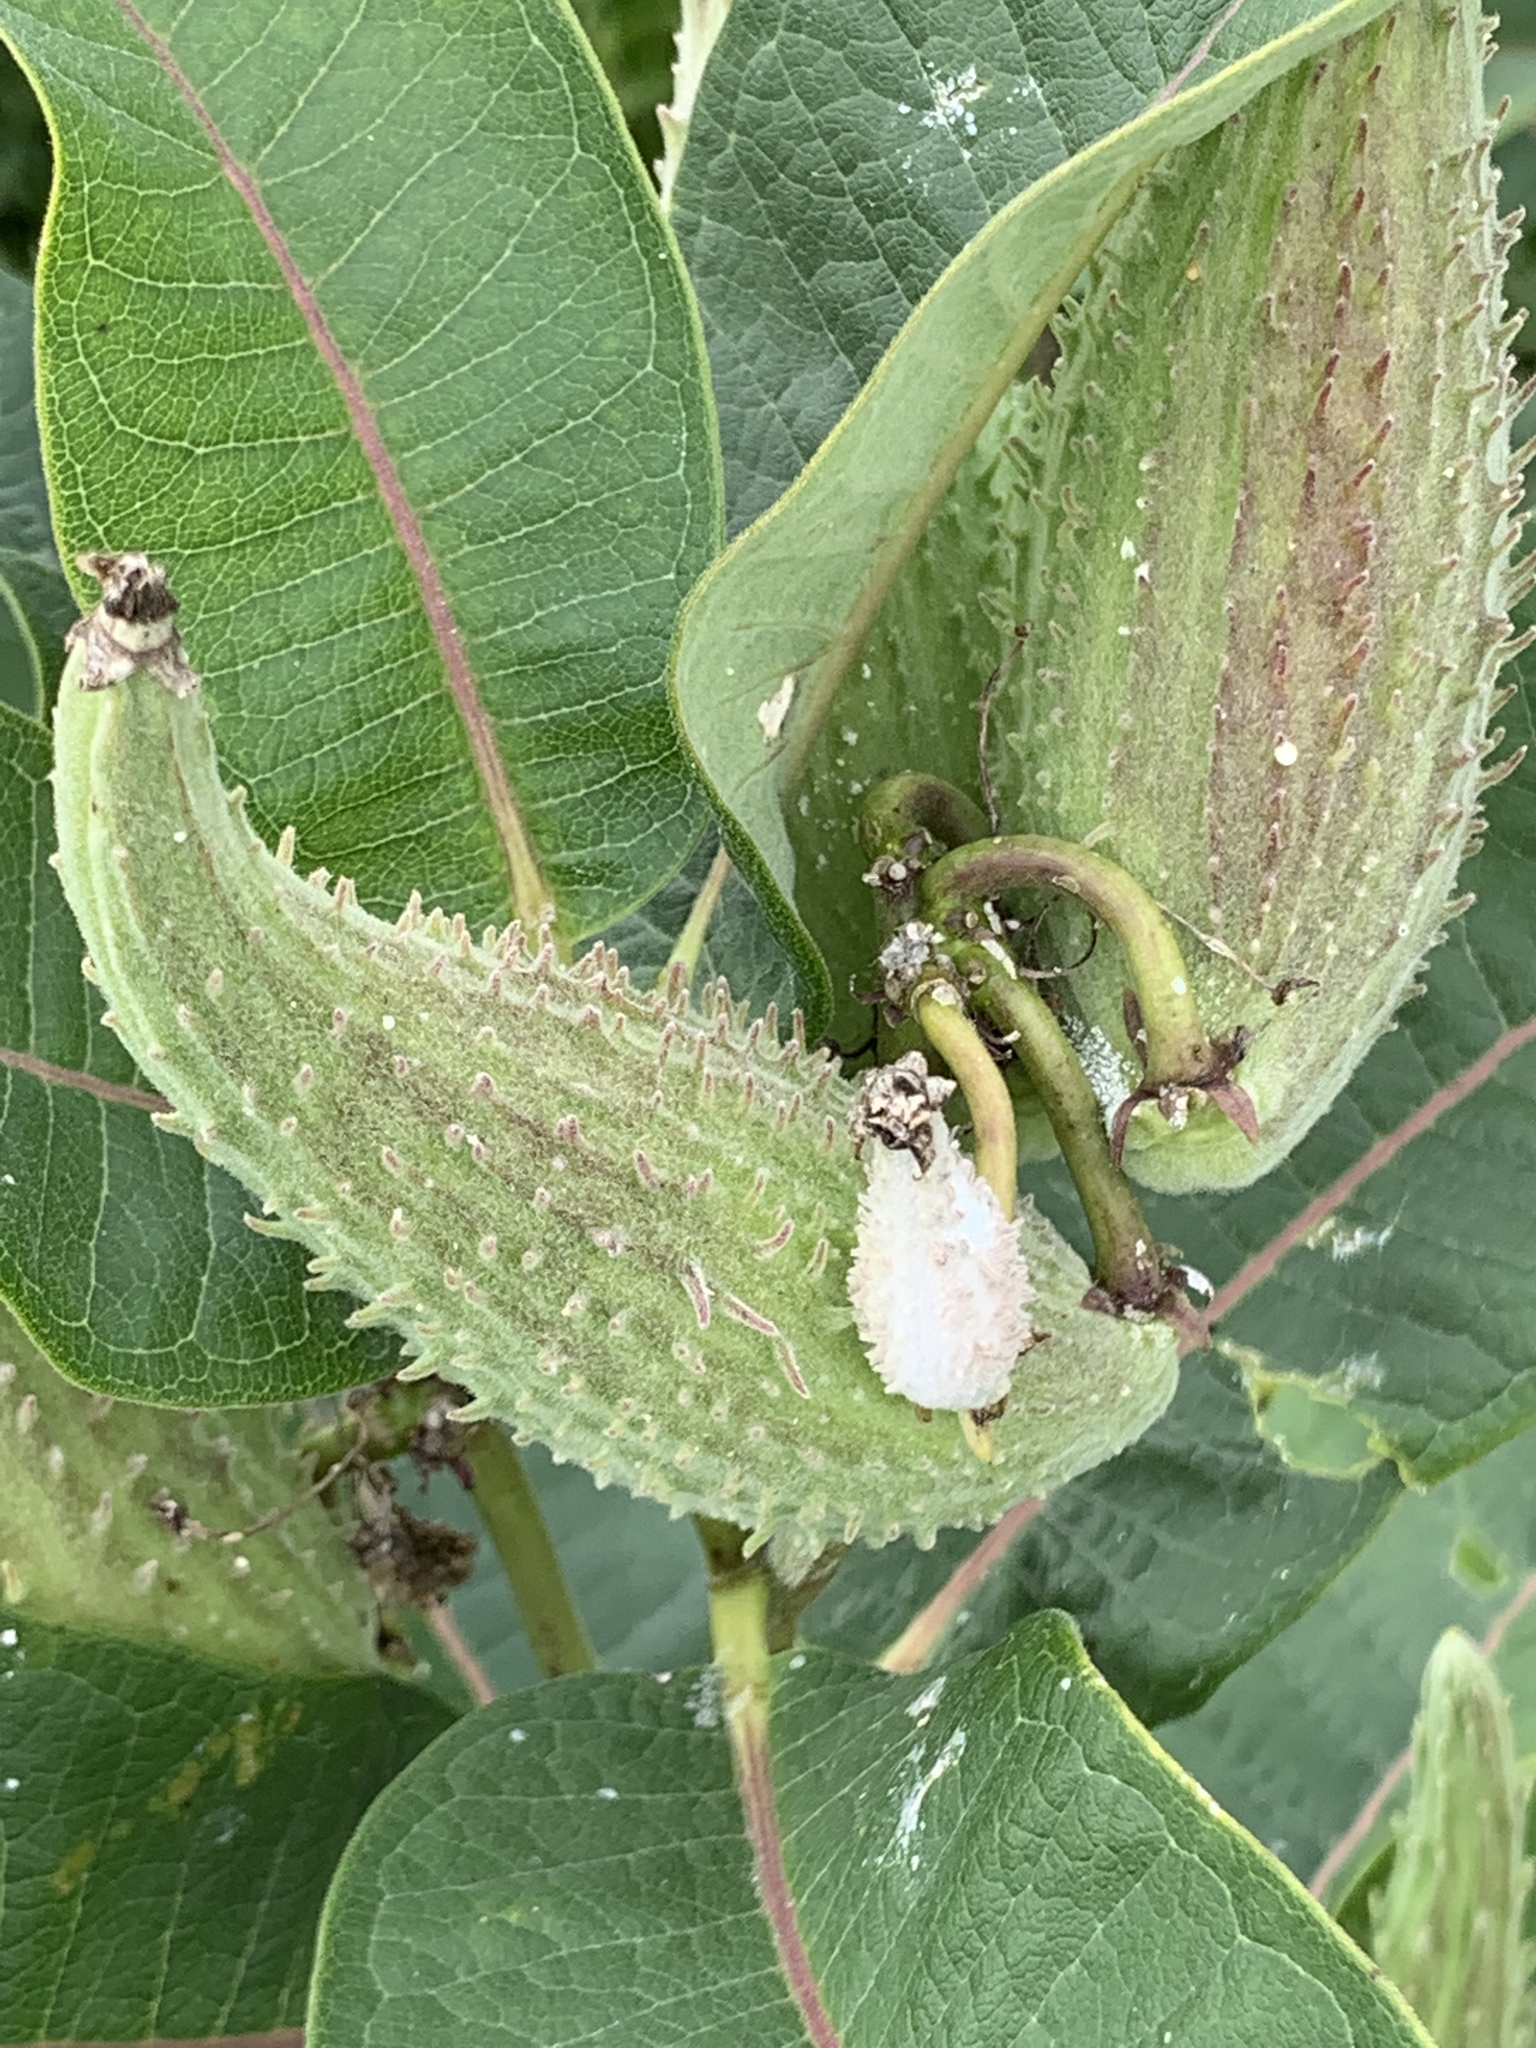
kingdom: Plantae
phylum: Tracheophyta
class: Magnoliopsida
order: Gentianales
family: Apocynaceae
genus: Asclepias
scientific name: Asclepias syriaca
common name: Common milkweed
